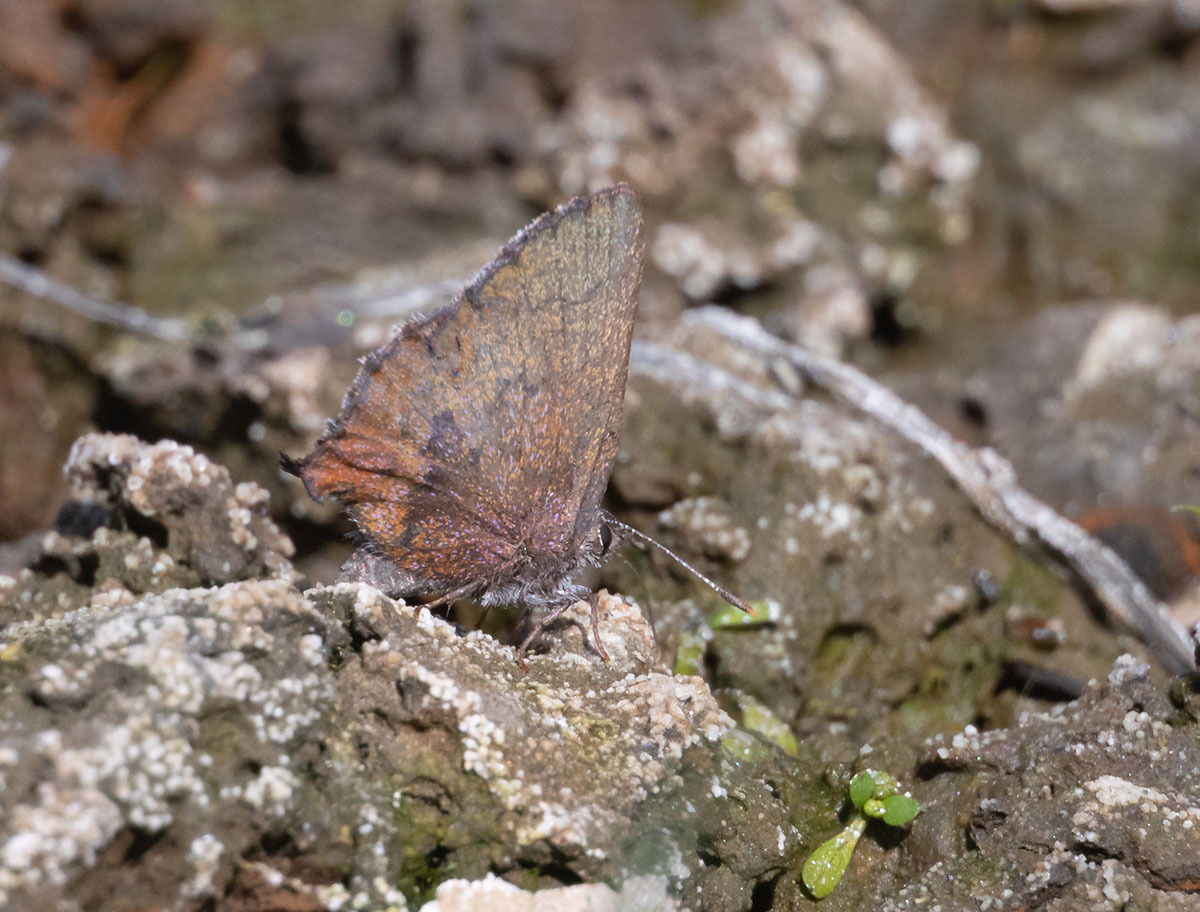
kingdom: Animalia
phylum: Arthropoda
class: Insecta
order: Lepidoptera
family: Lycaenidae
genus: Incisalia
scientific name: Incisalia irioides
